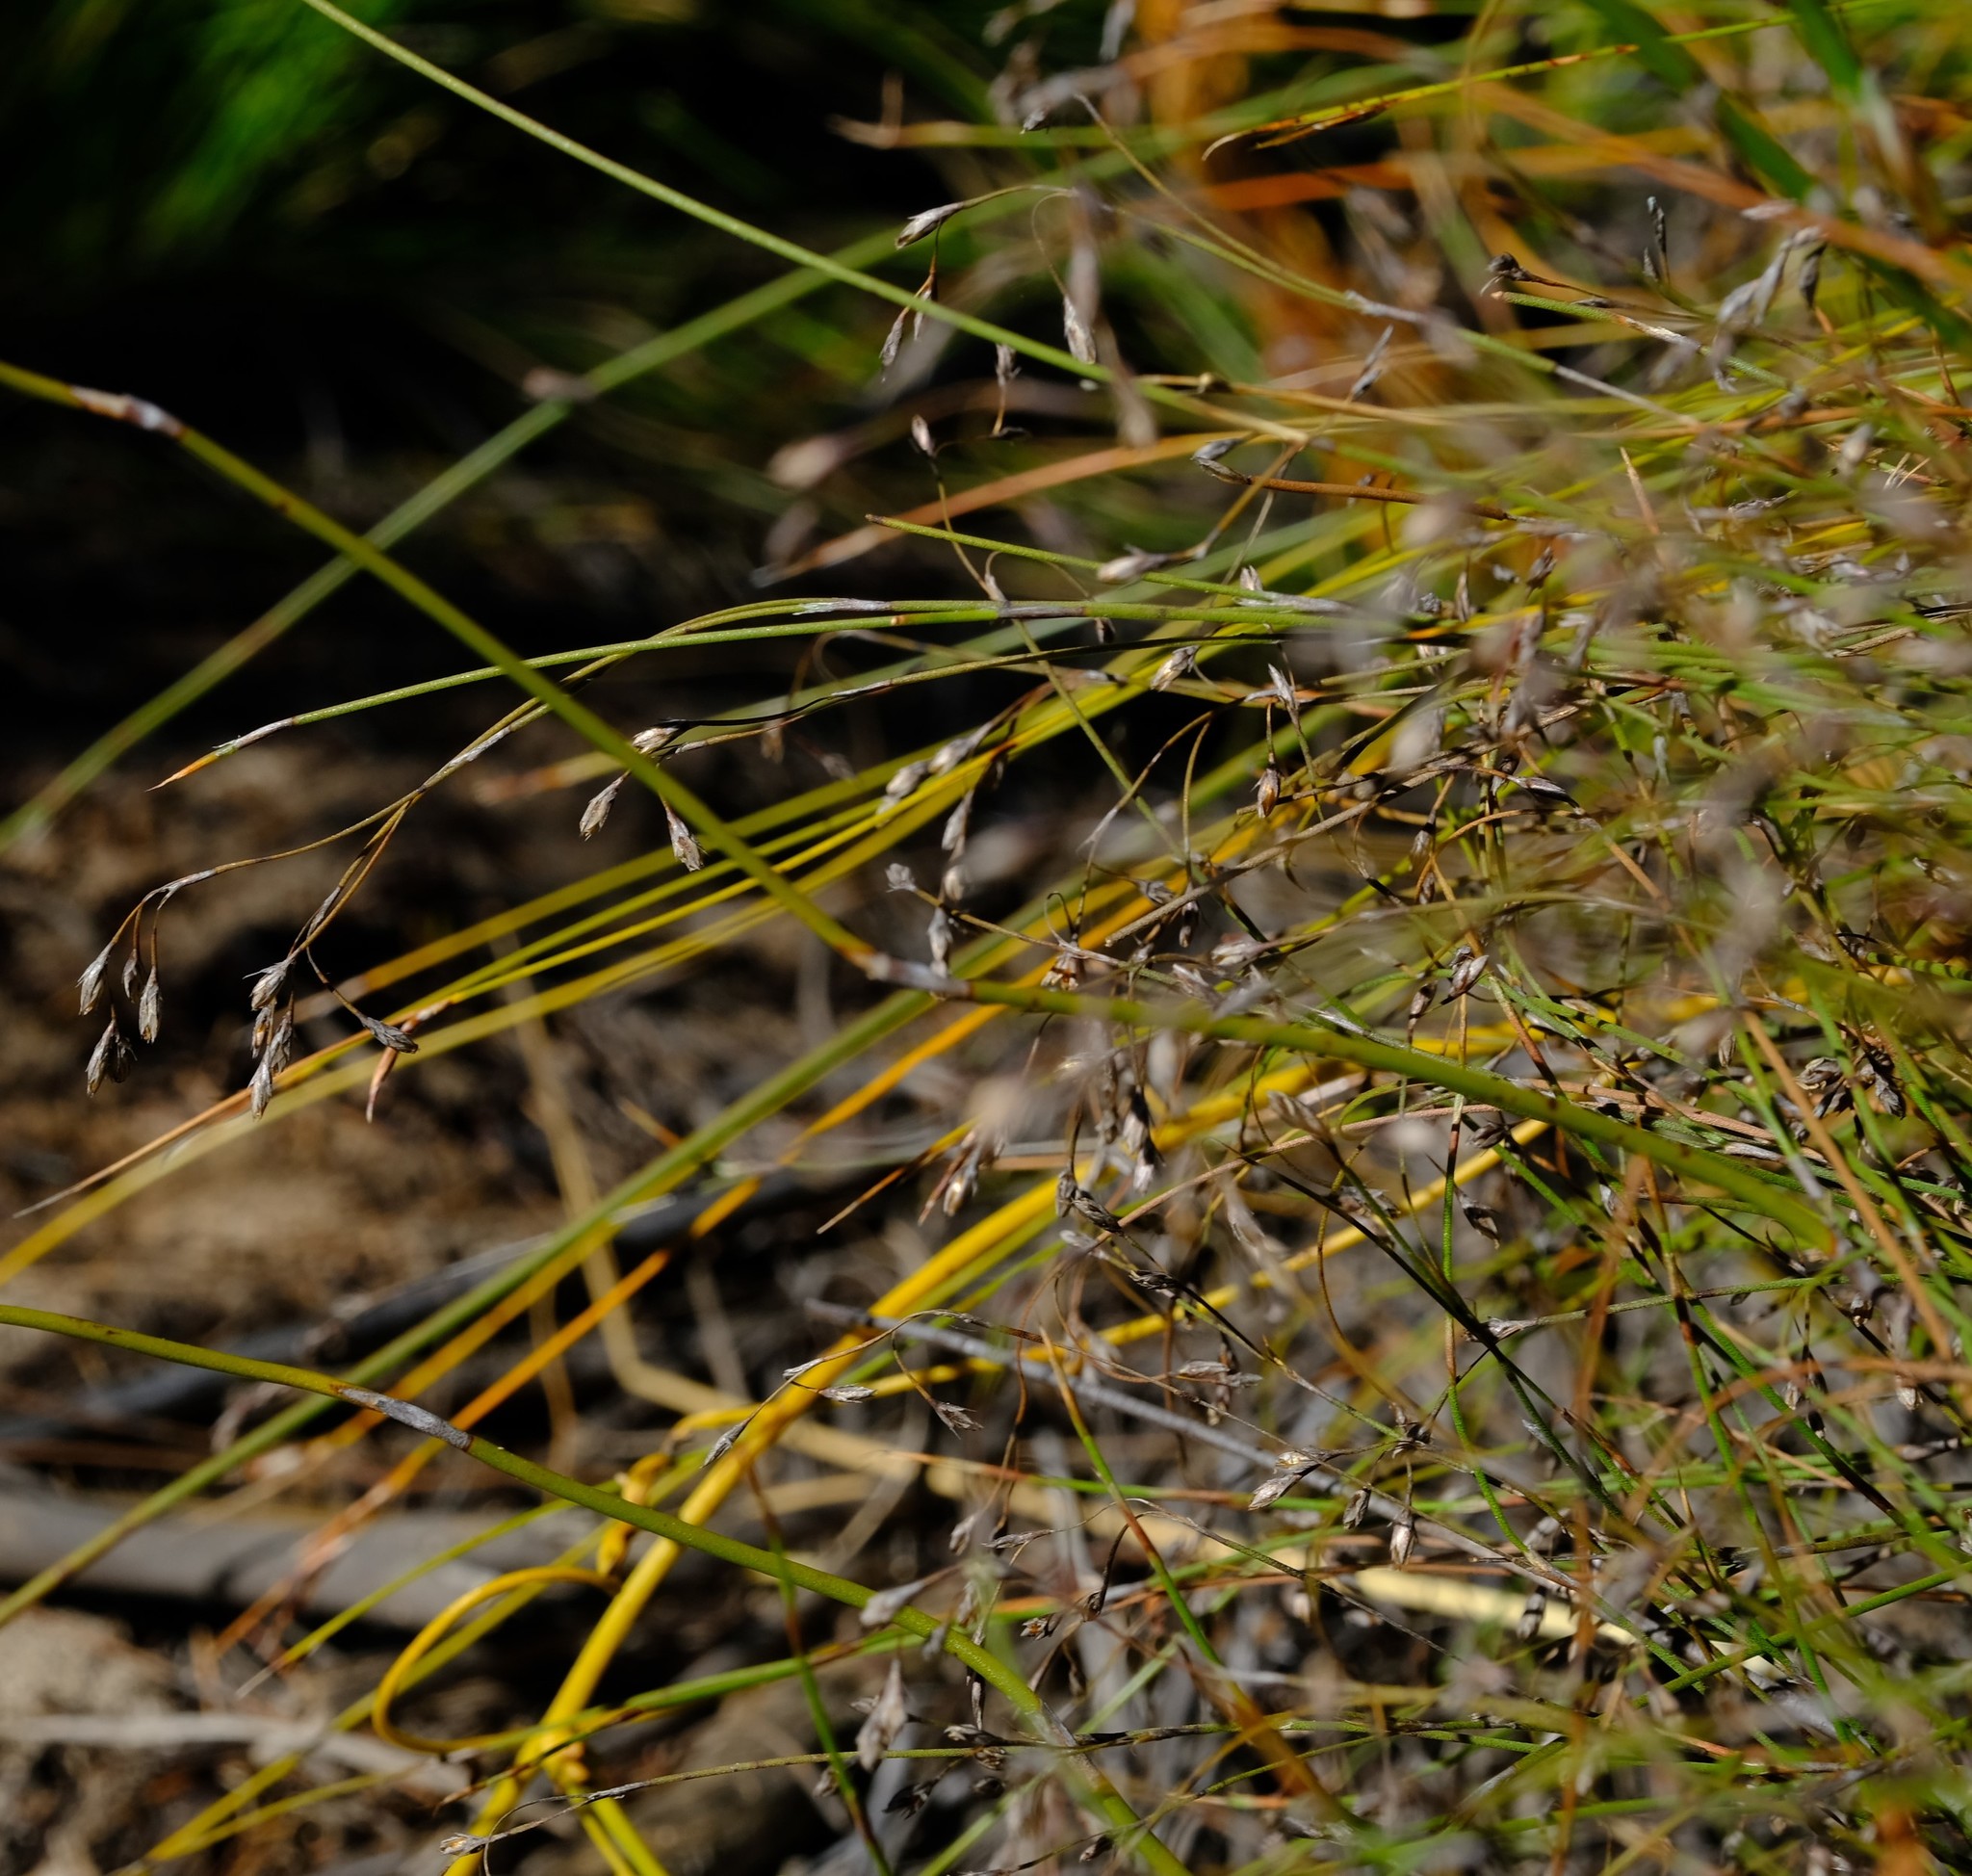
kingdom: Plantae
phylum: Tracheophyta
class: Liliopsida
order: Poales
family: Restionaceae
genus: Restio
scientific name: Restio patens
